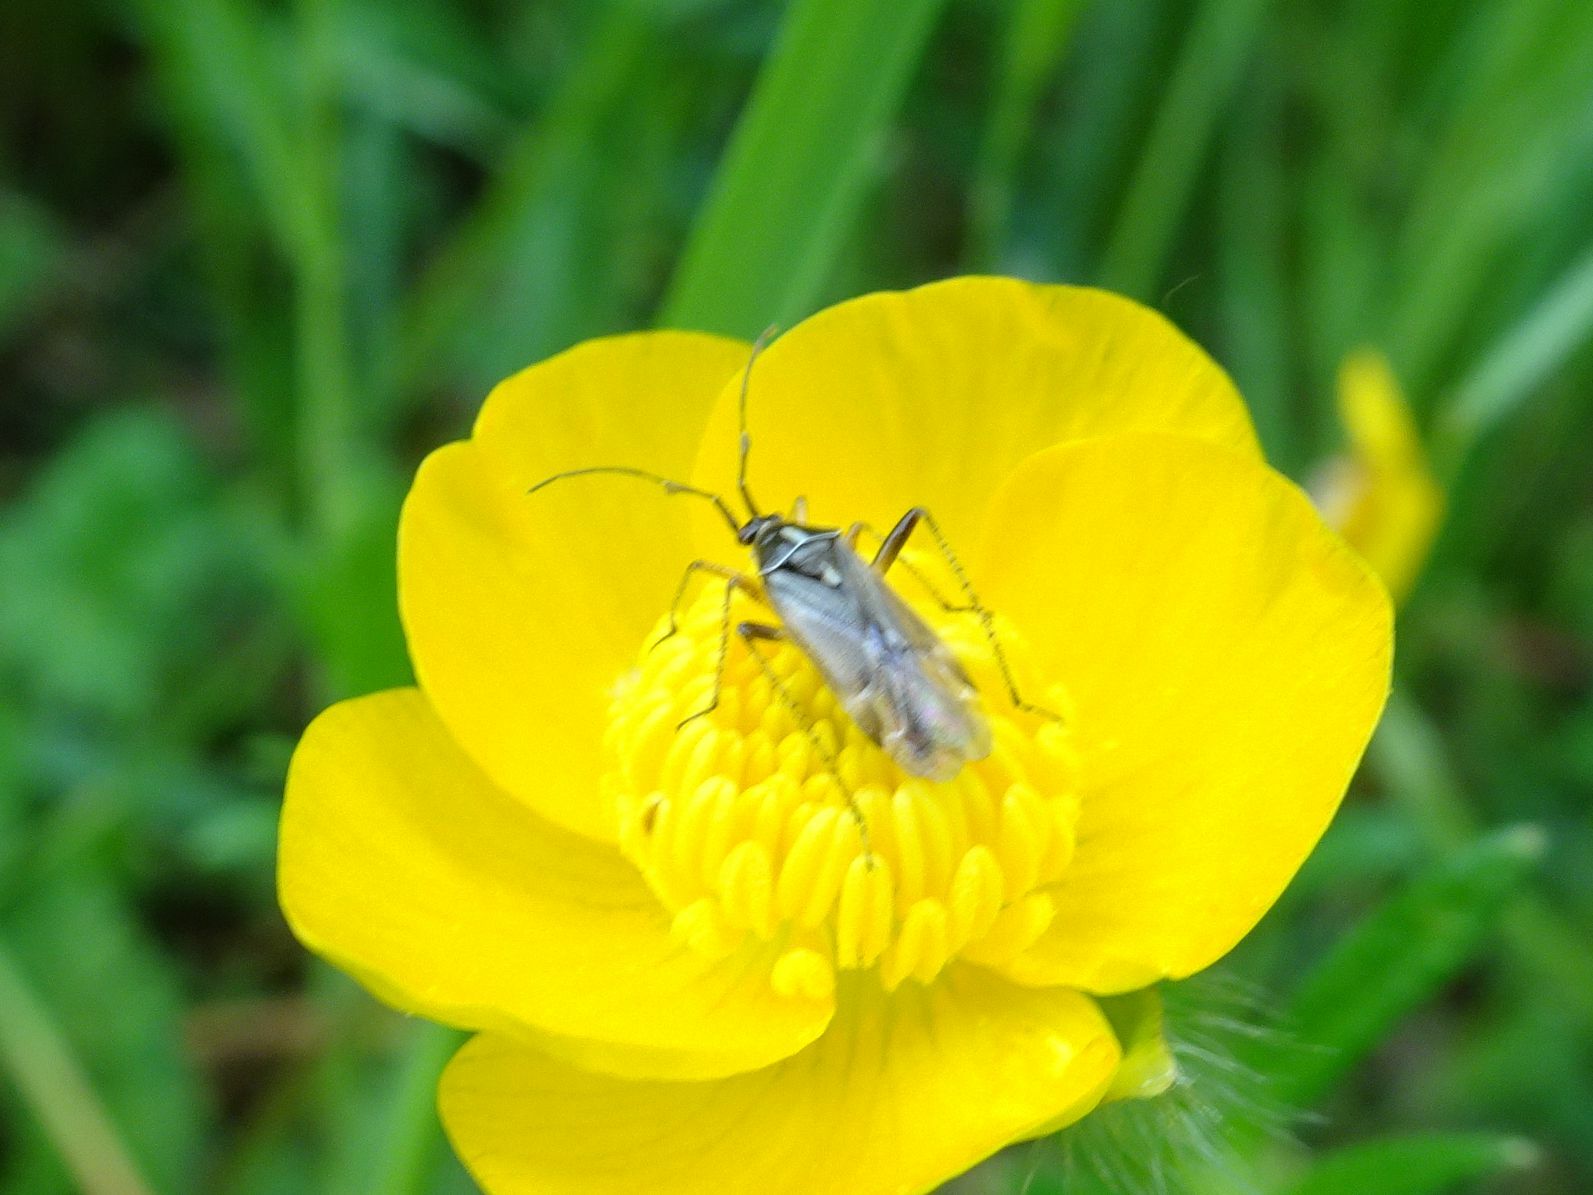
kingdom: Animalia
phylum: Arthropoda
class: Insecta
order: Hemiptera
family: Miridae
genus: Harpocera
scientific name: Harpocera thoracica
